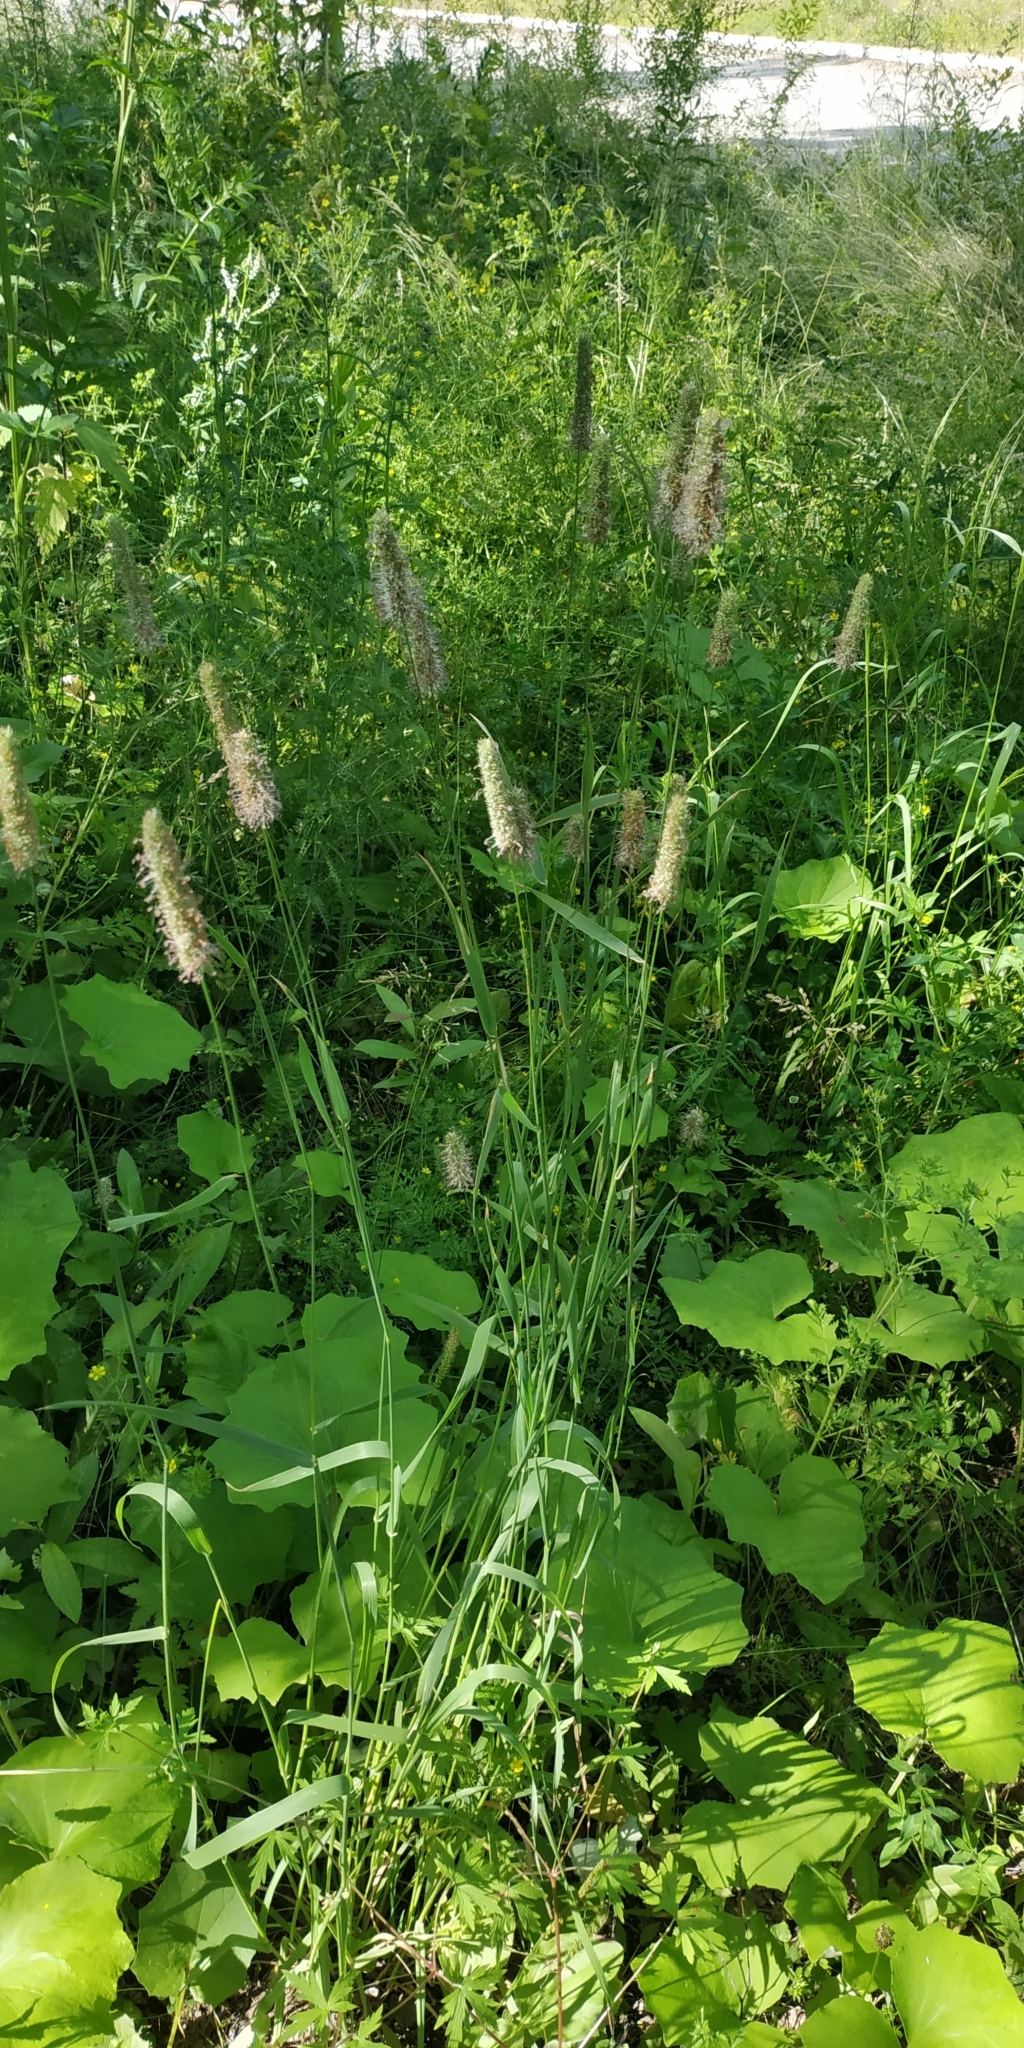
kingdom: Plantae
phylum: Tracheophyta
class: Liliopsida
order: Poales
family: Poaceae
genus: Phleum
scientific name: Phleum pratense
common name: Timothy grass
